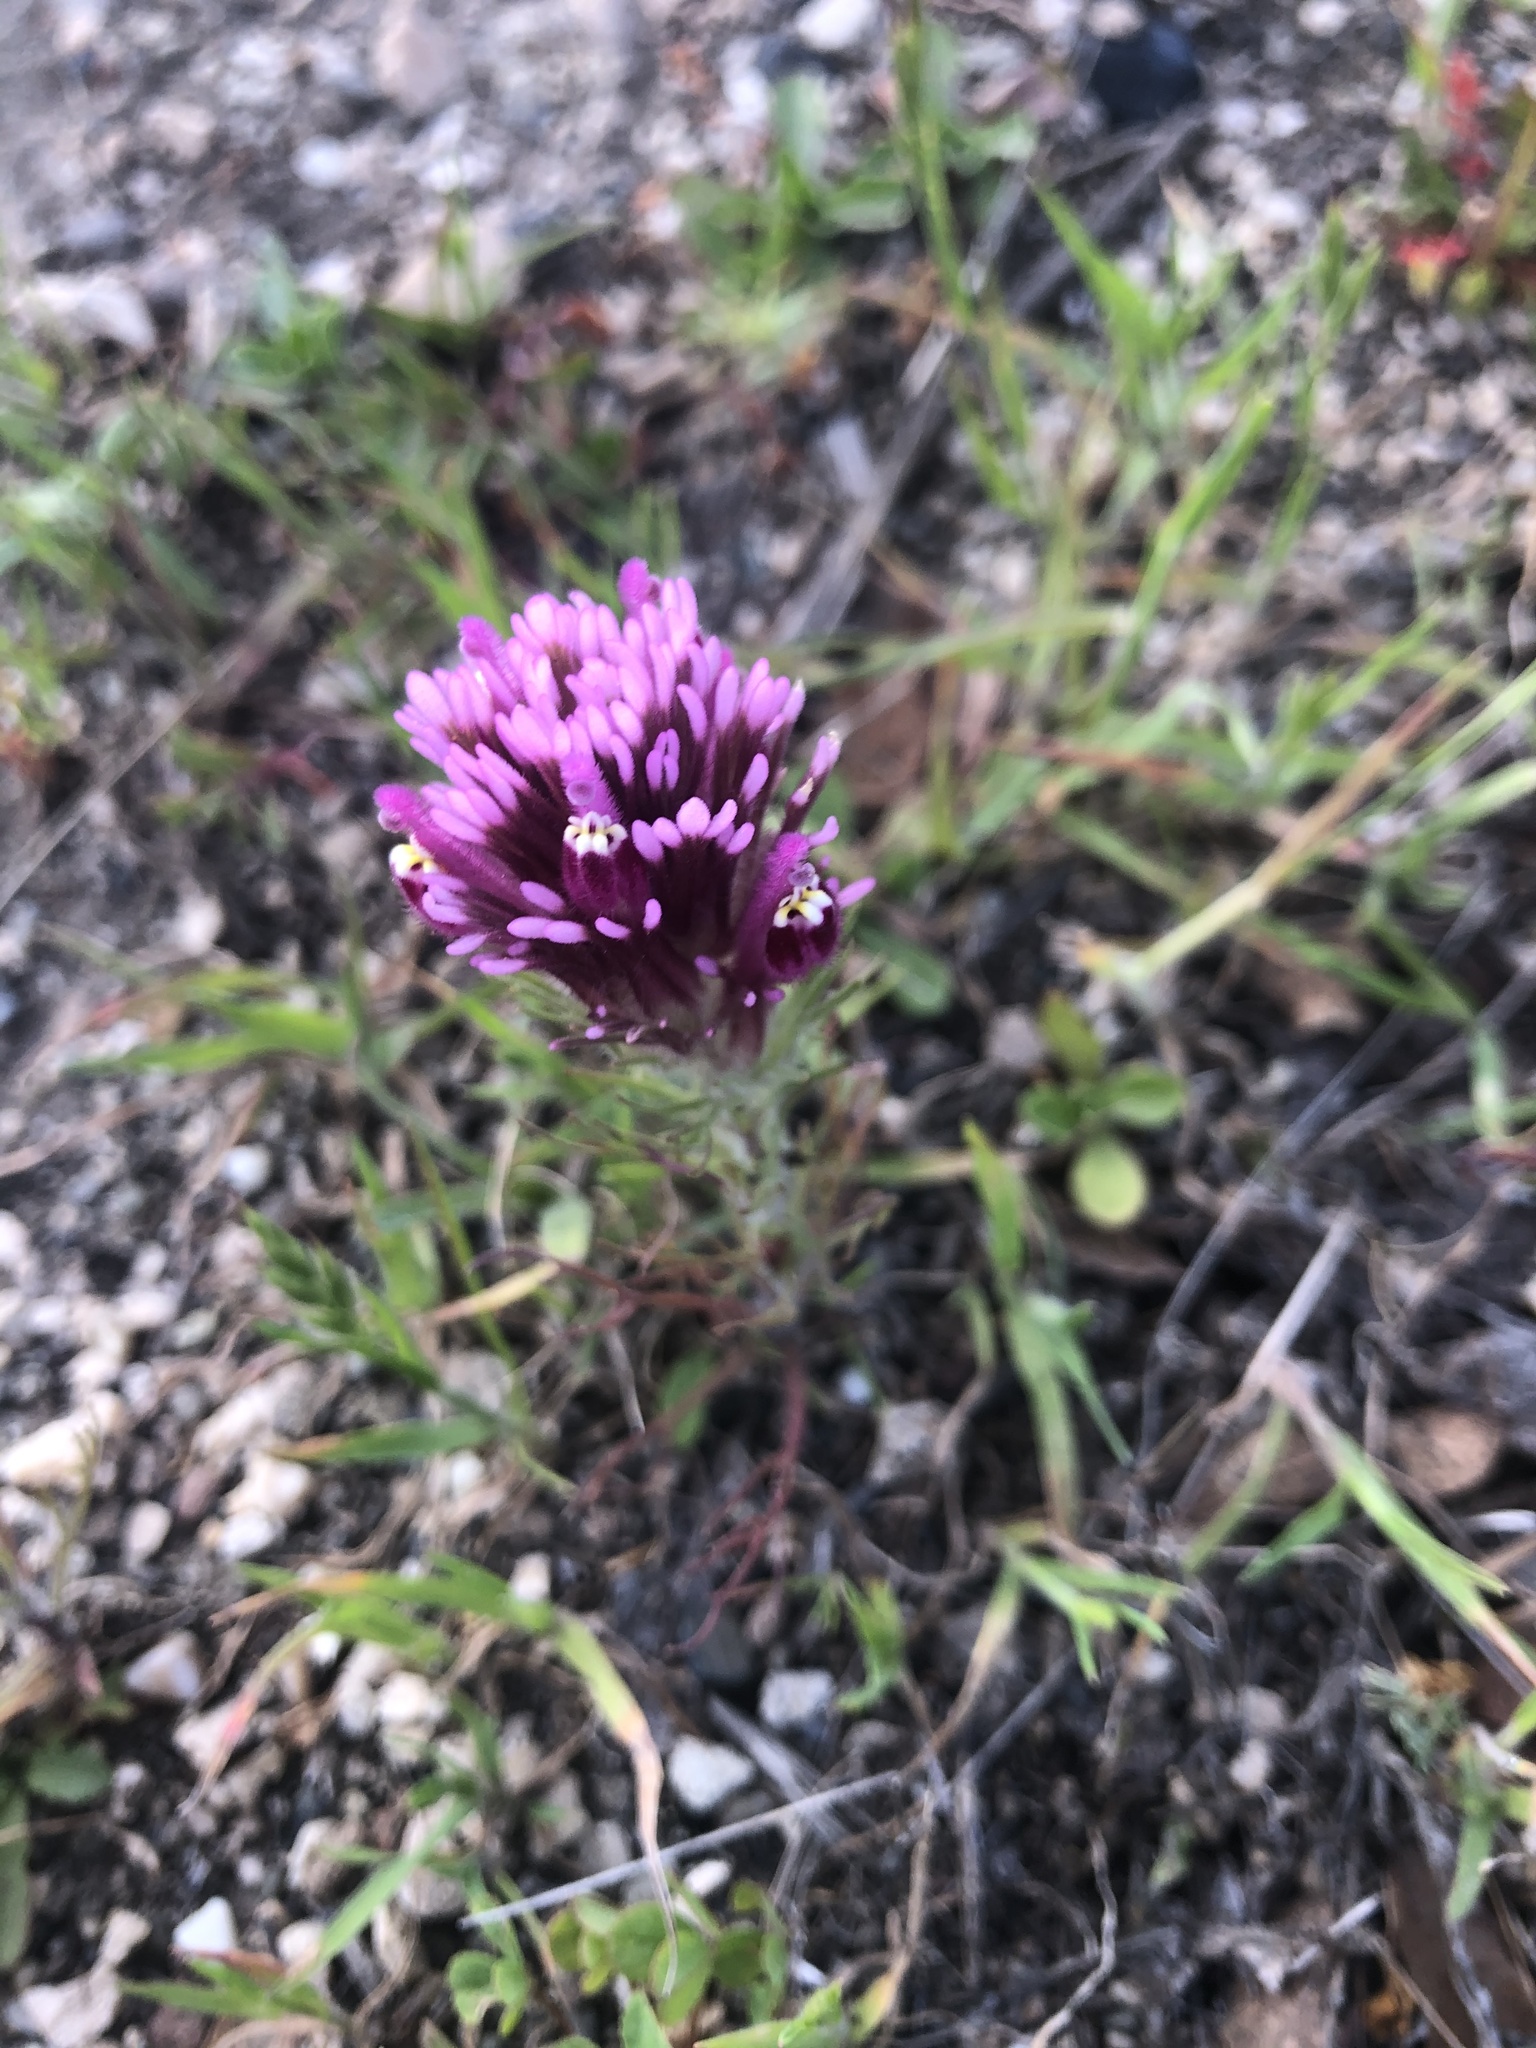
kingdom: Plantae
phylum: Tracheophyta
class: Magnoliopsida
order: Lamiales
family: Orobanchaceae
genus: Castilleja
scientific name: Castilleja exserta
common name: Purple owl-clover
